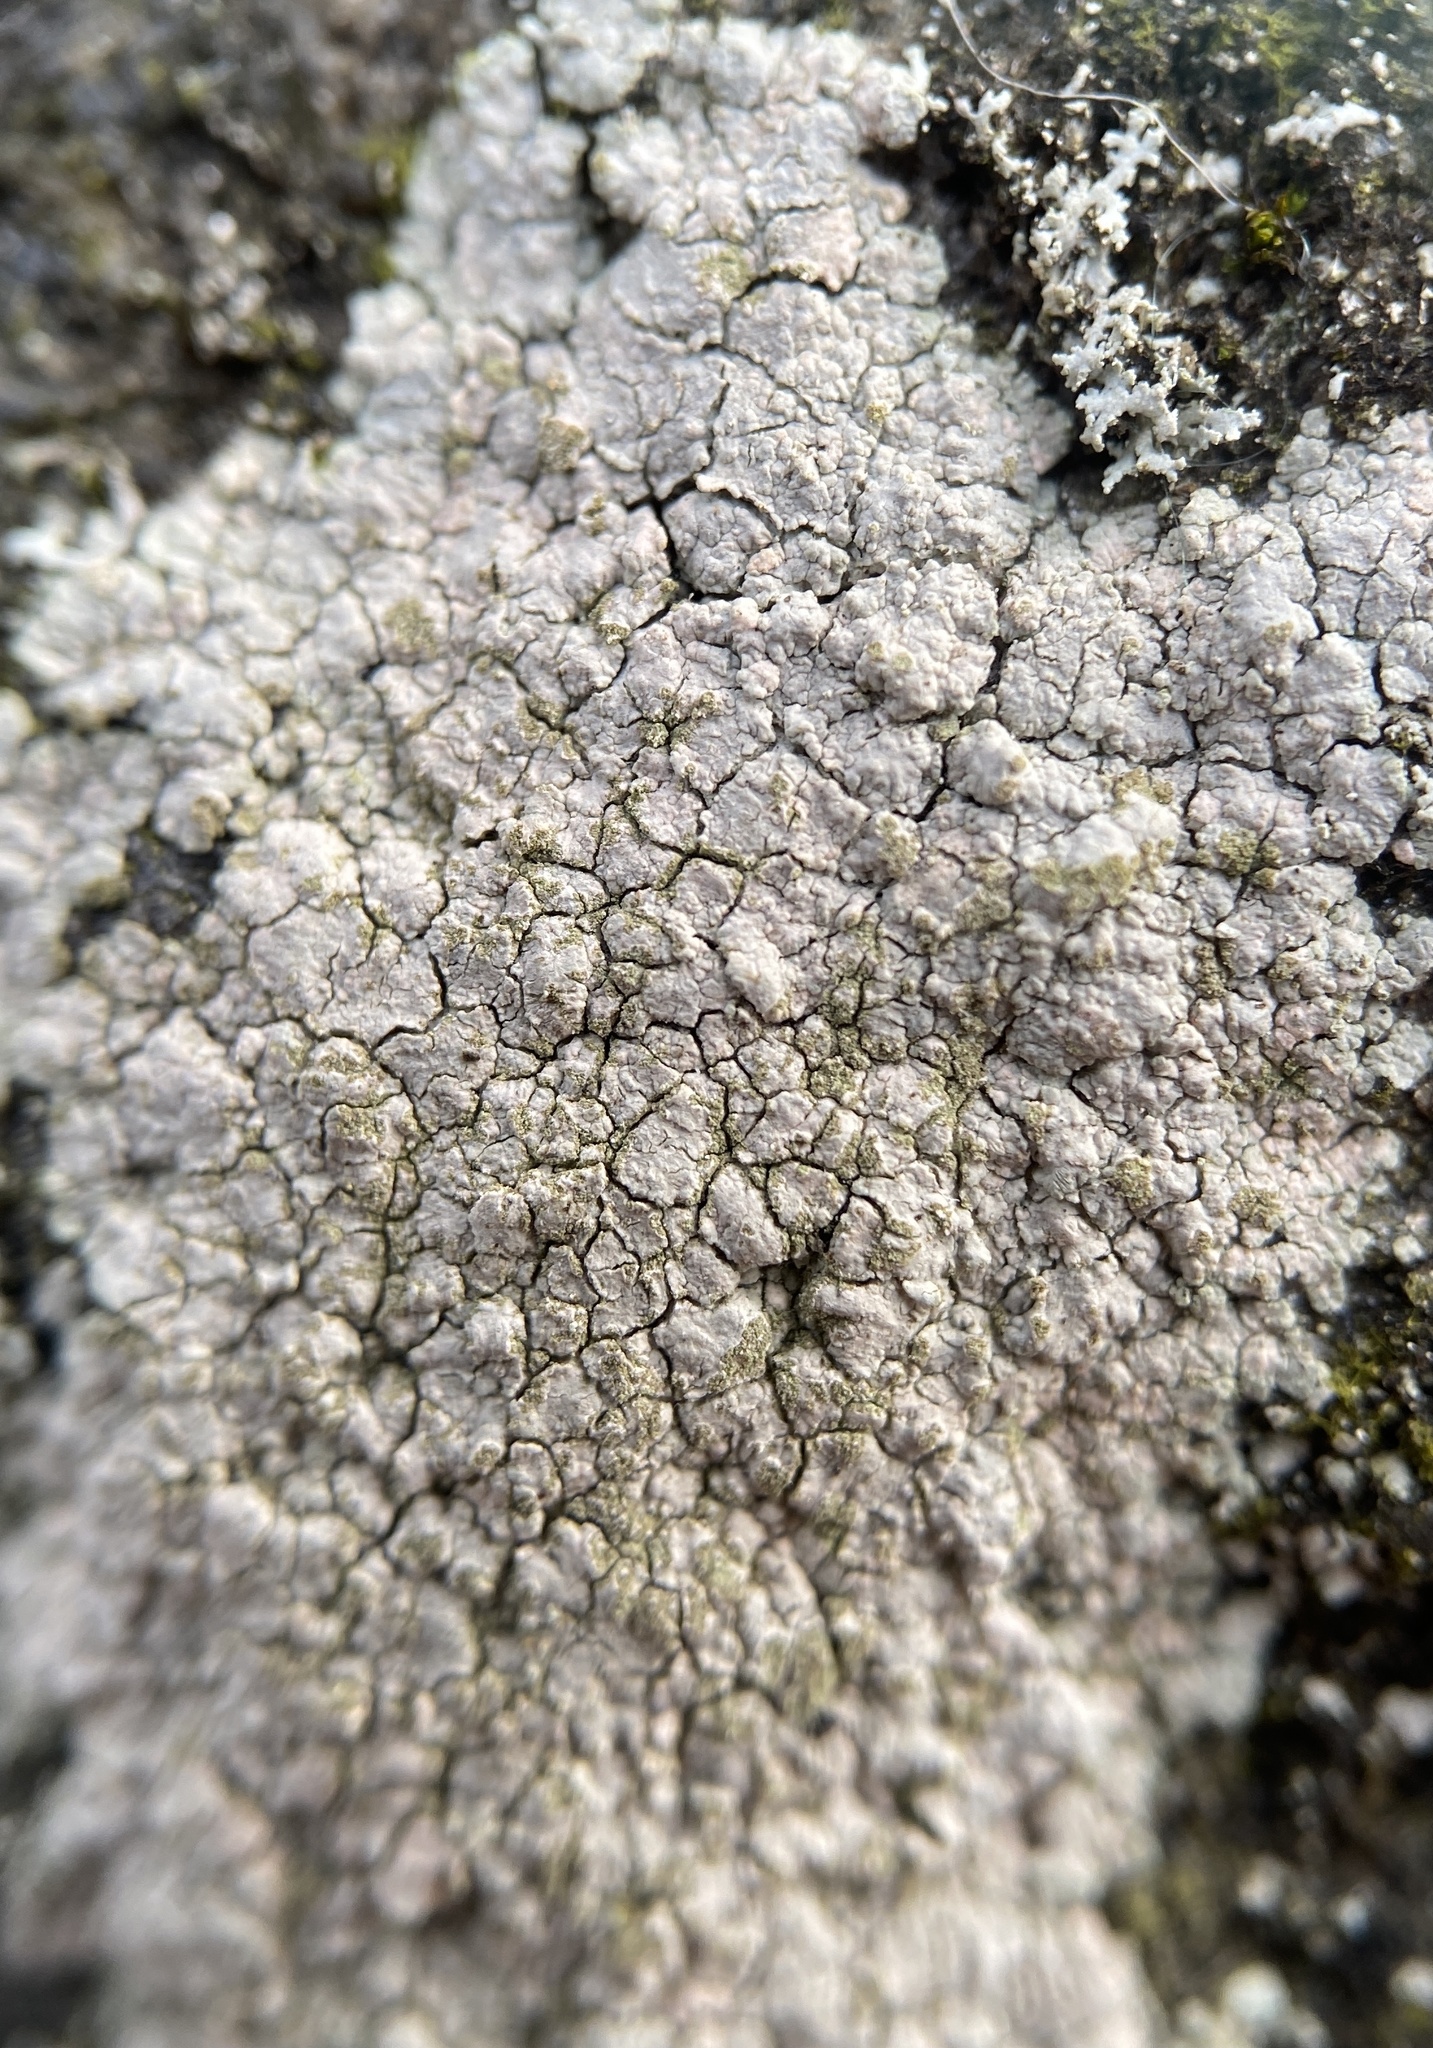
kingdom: Fungi
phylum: Ascomycota
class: Lecanoromycetes
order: Baeomycetales
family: Trapeliaceae
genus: Kleopowiella
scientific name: Kleopowiella placodioides
